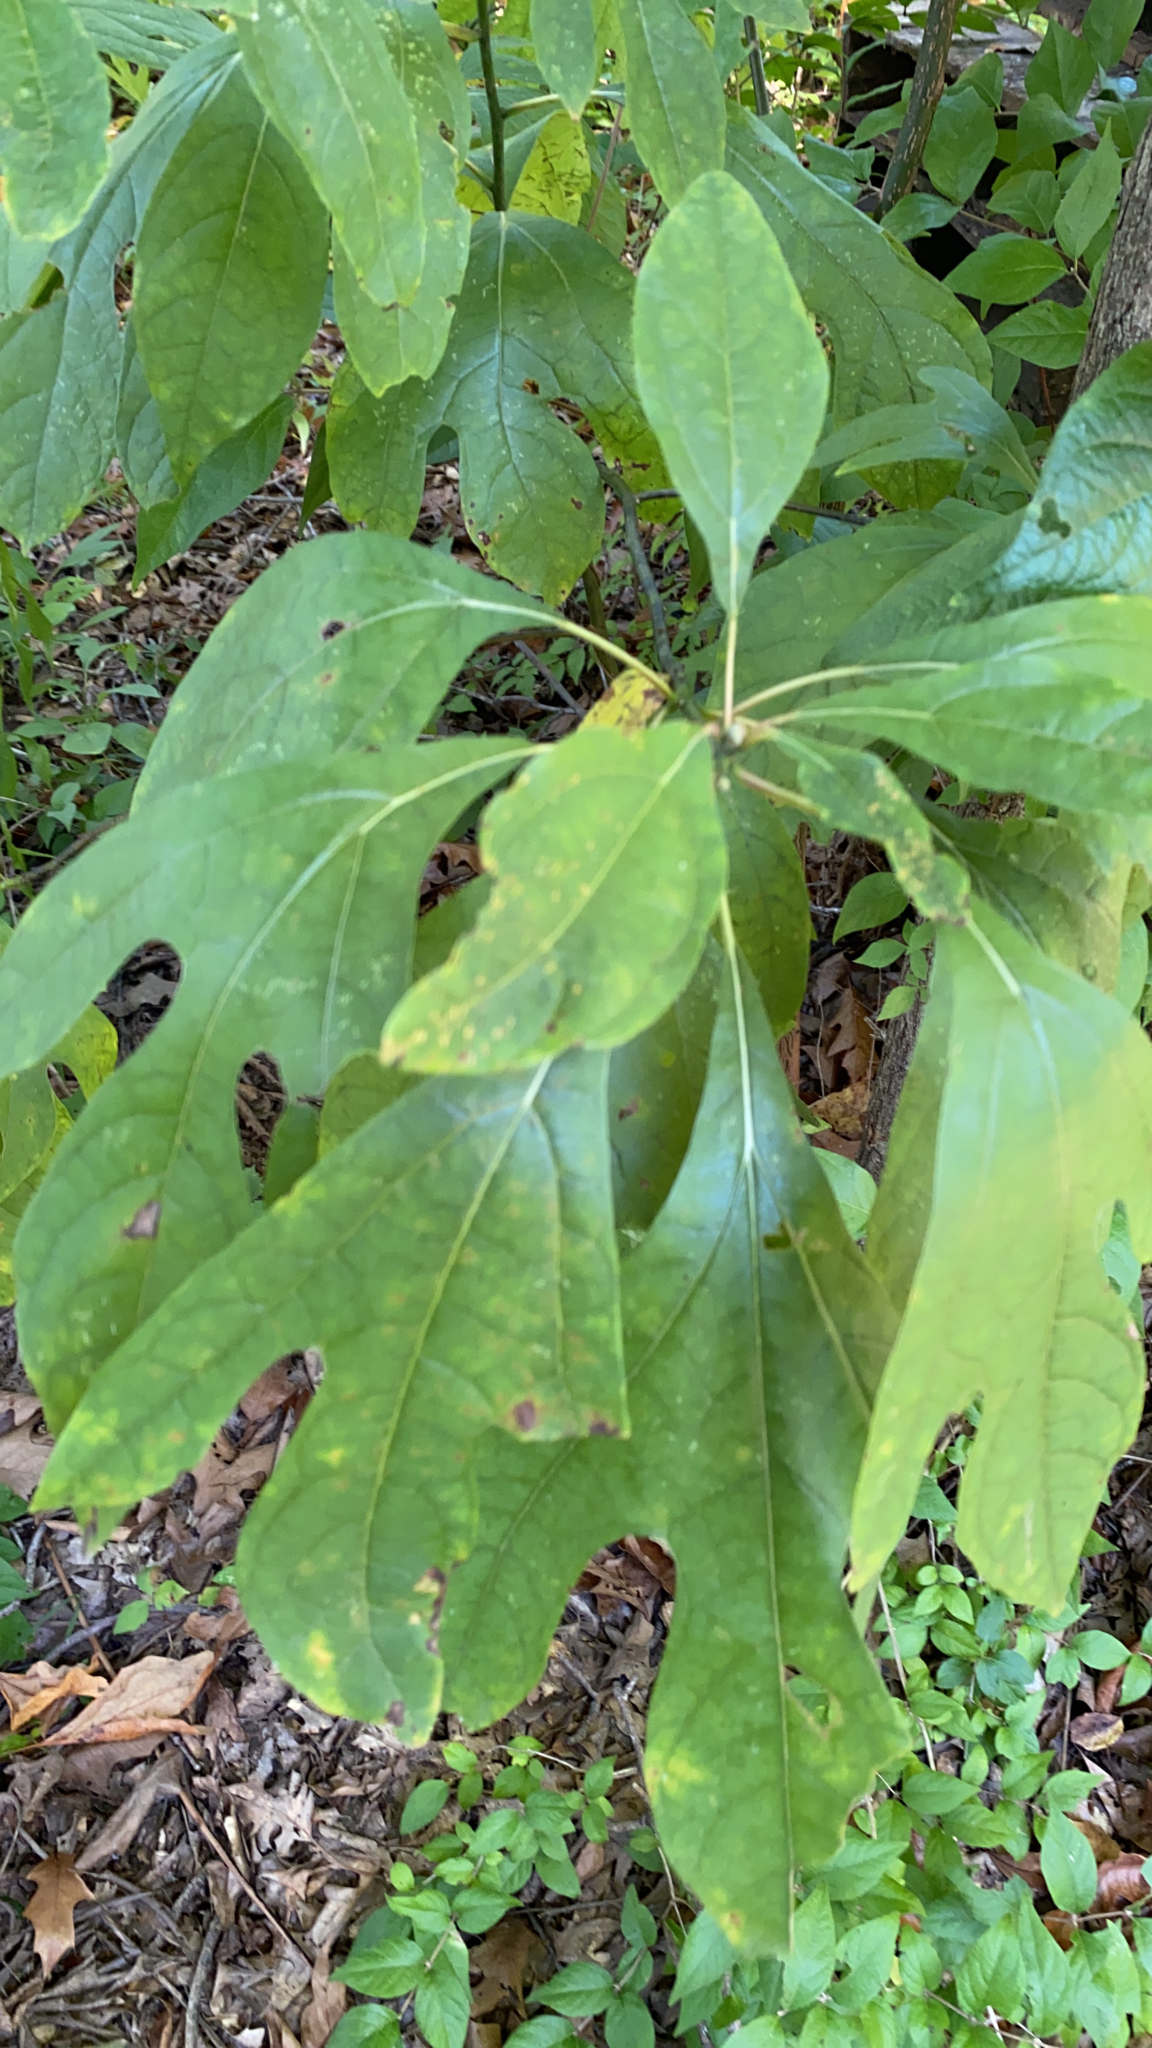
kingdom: Plantae
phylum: Tracheophyta
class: Magnoliopsida
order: Laurales
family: Lauraceae
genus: Sassafras
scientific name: Sassafras albidum
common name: Sassafras
